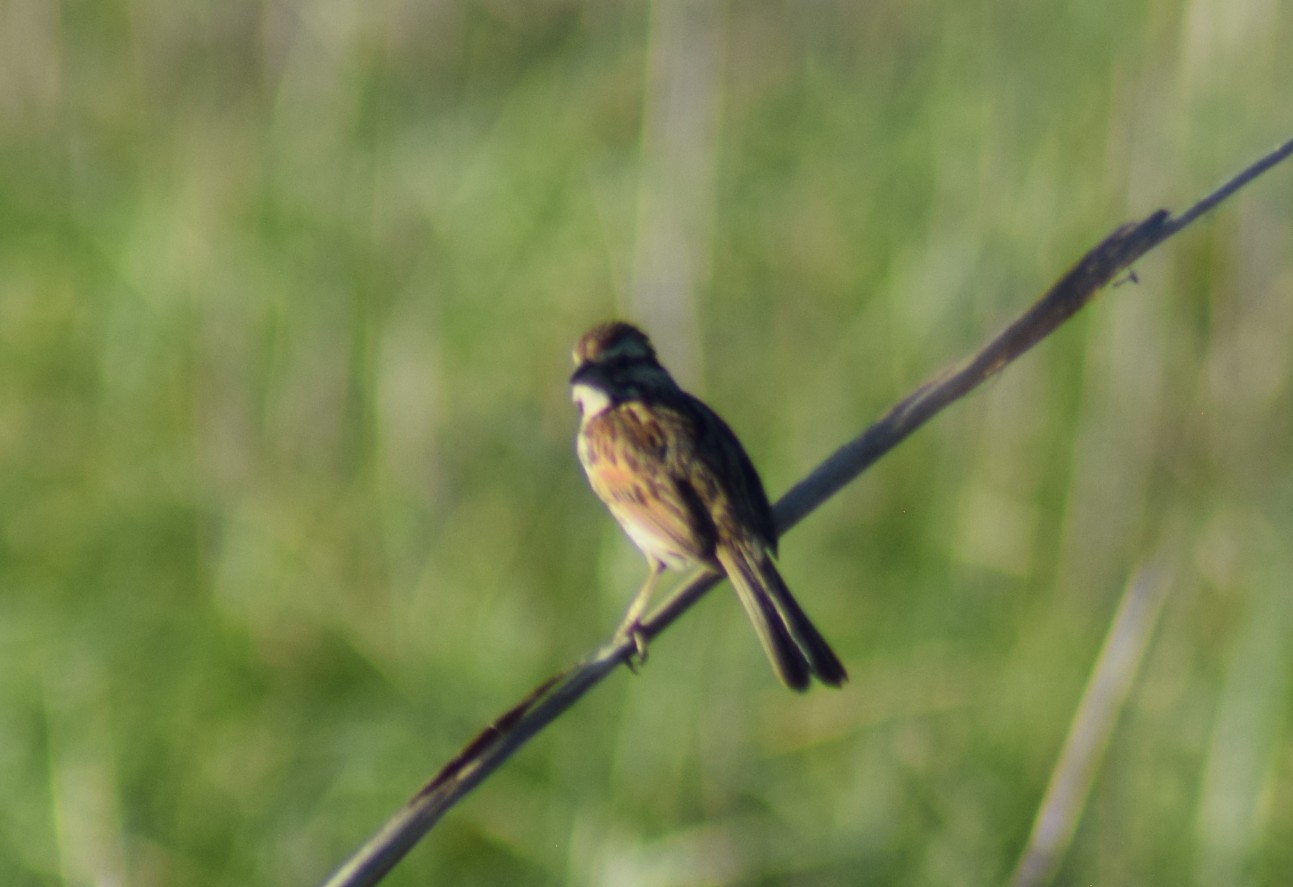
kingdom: Animalia
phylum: Chordata
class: Aves
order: Passeriformes
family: Passerellidae
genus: Melospiza
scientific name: Melospiza melodia
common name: Song sparrow
